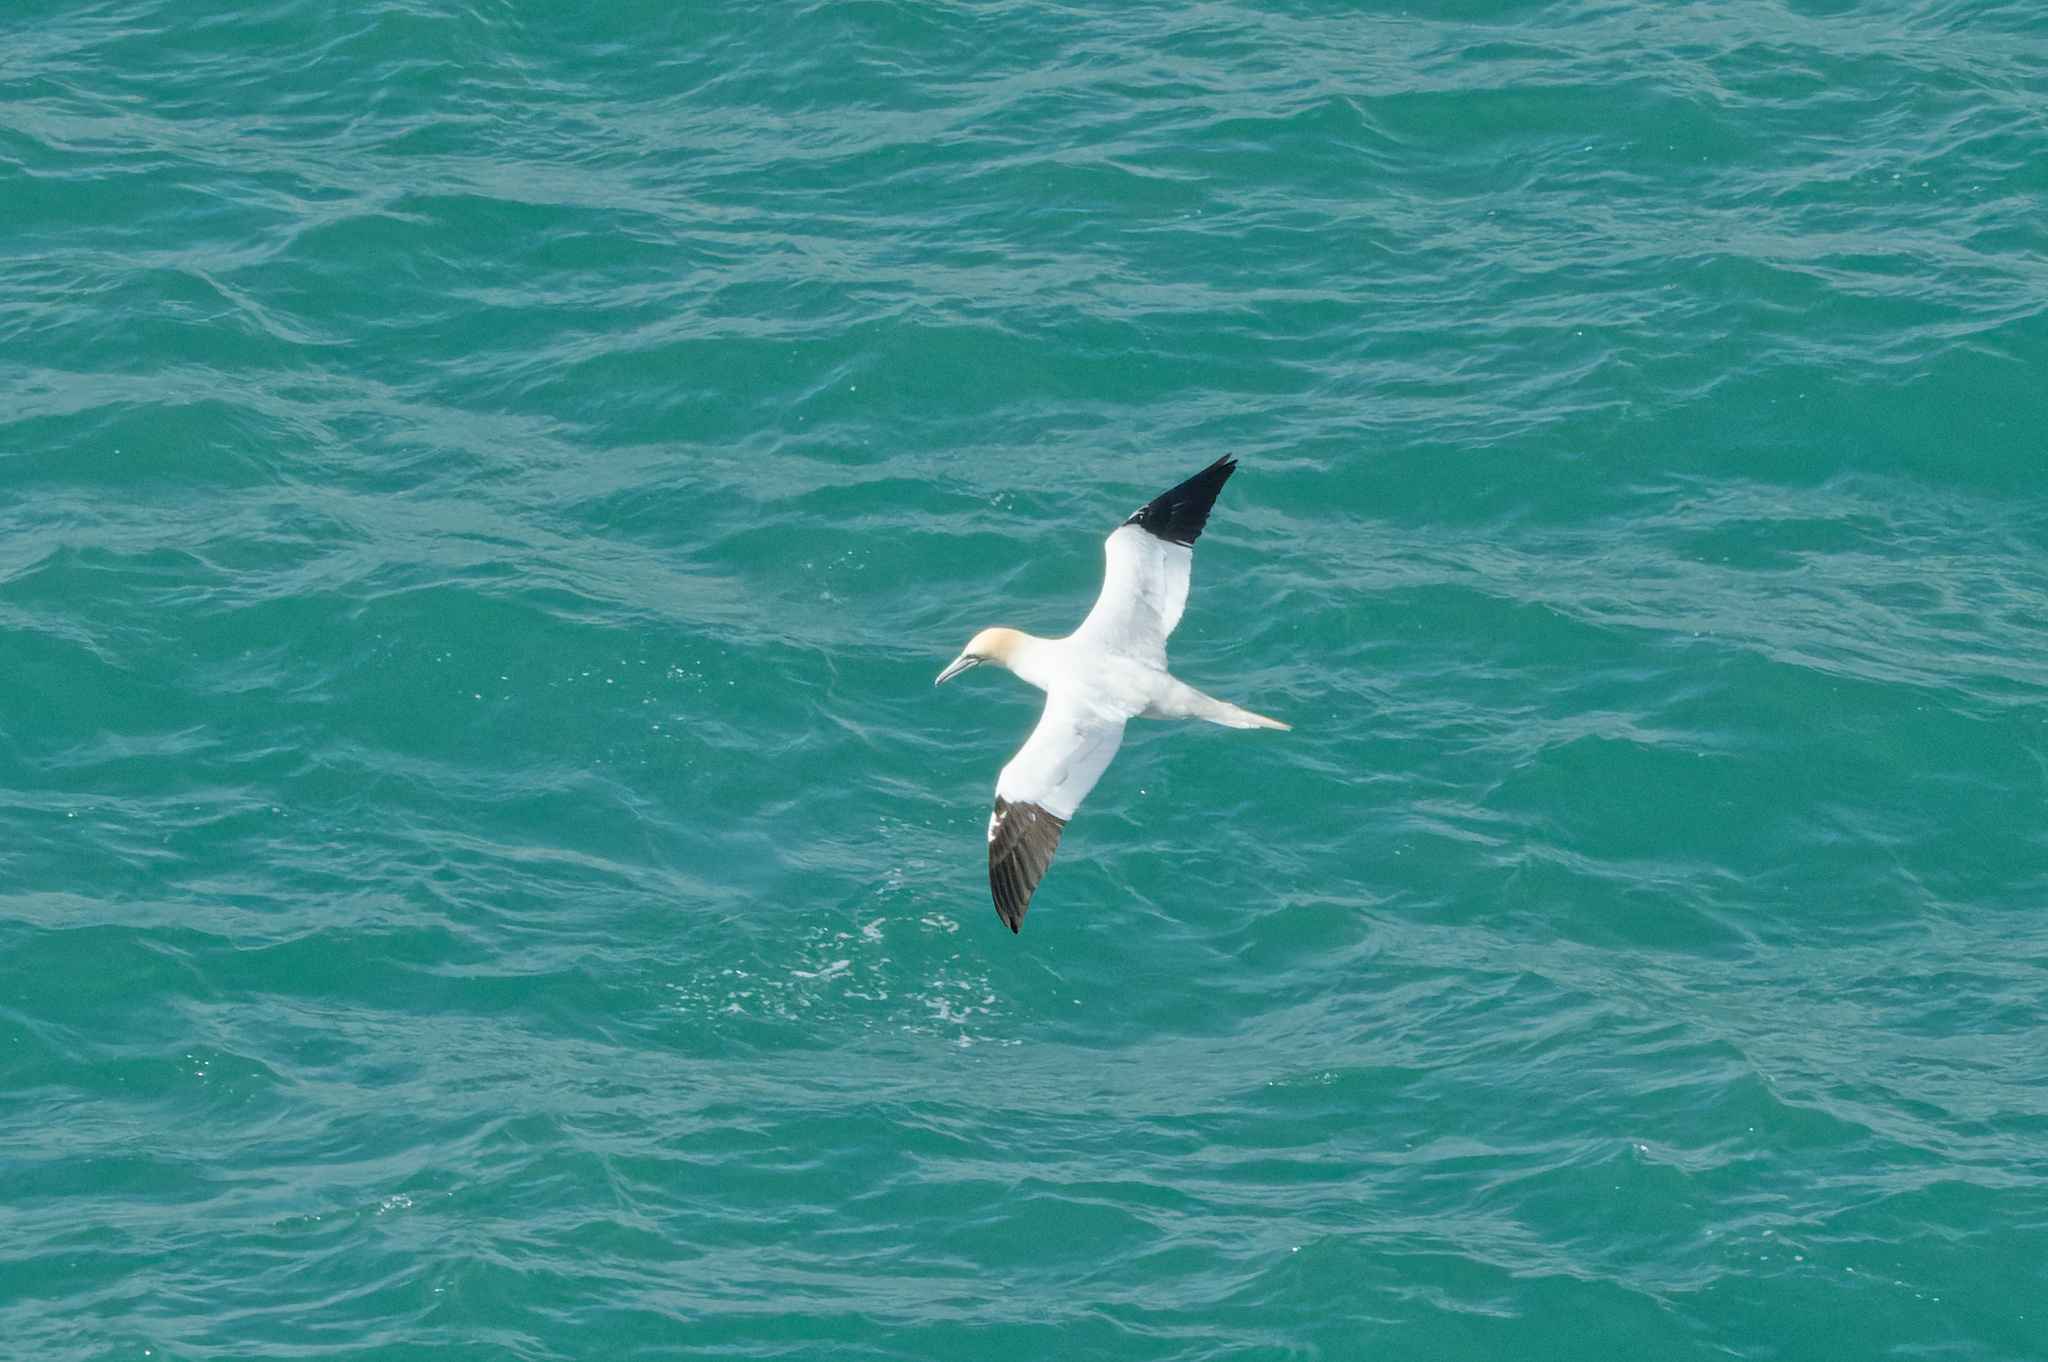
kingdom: Animalia
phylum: Chordata
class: Aves
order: Suliformes
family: Sulidae
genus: Morus
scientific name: Morus bassanus
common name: Northern gannet
